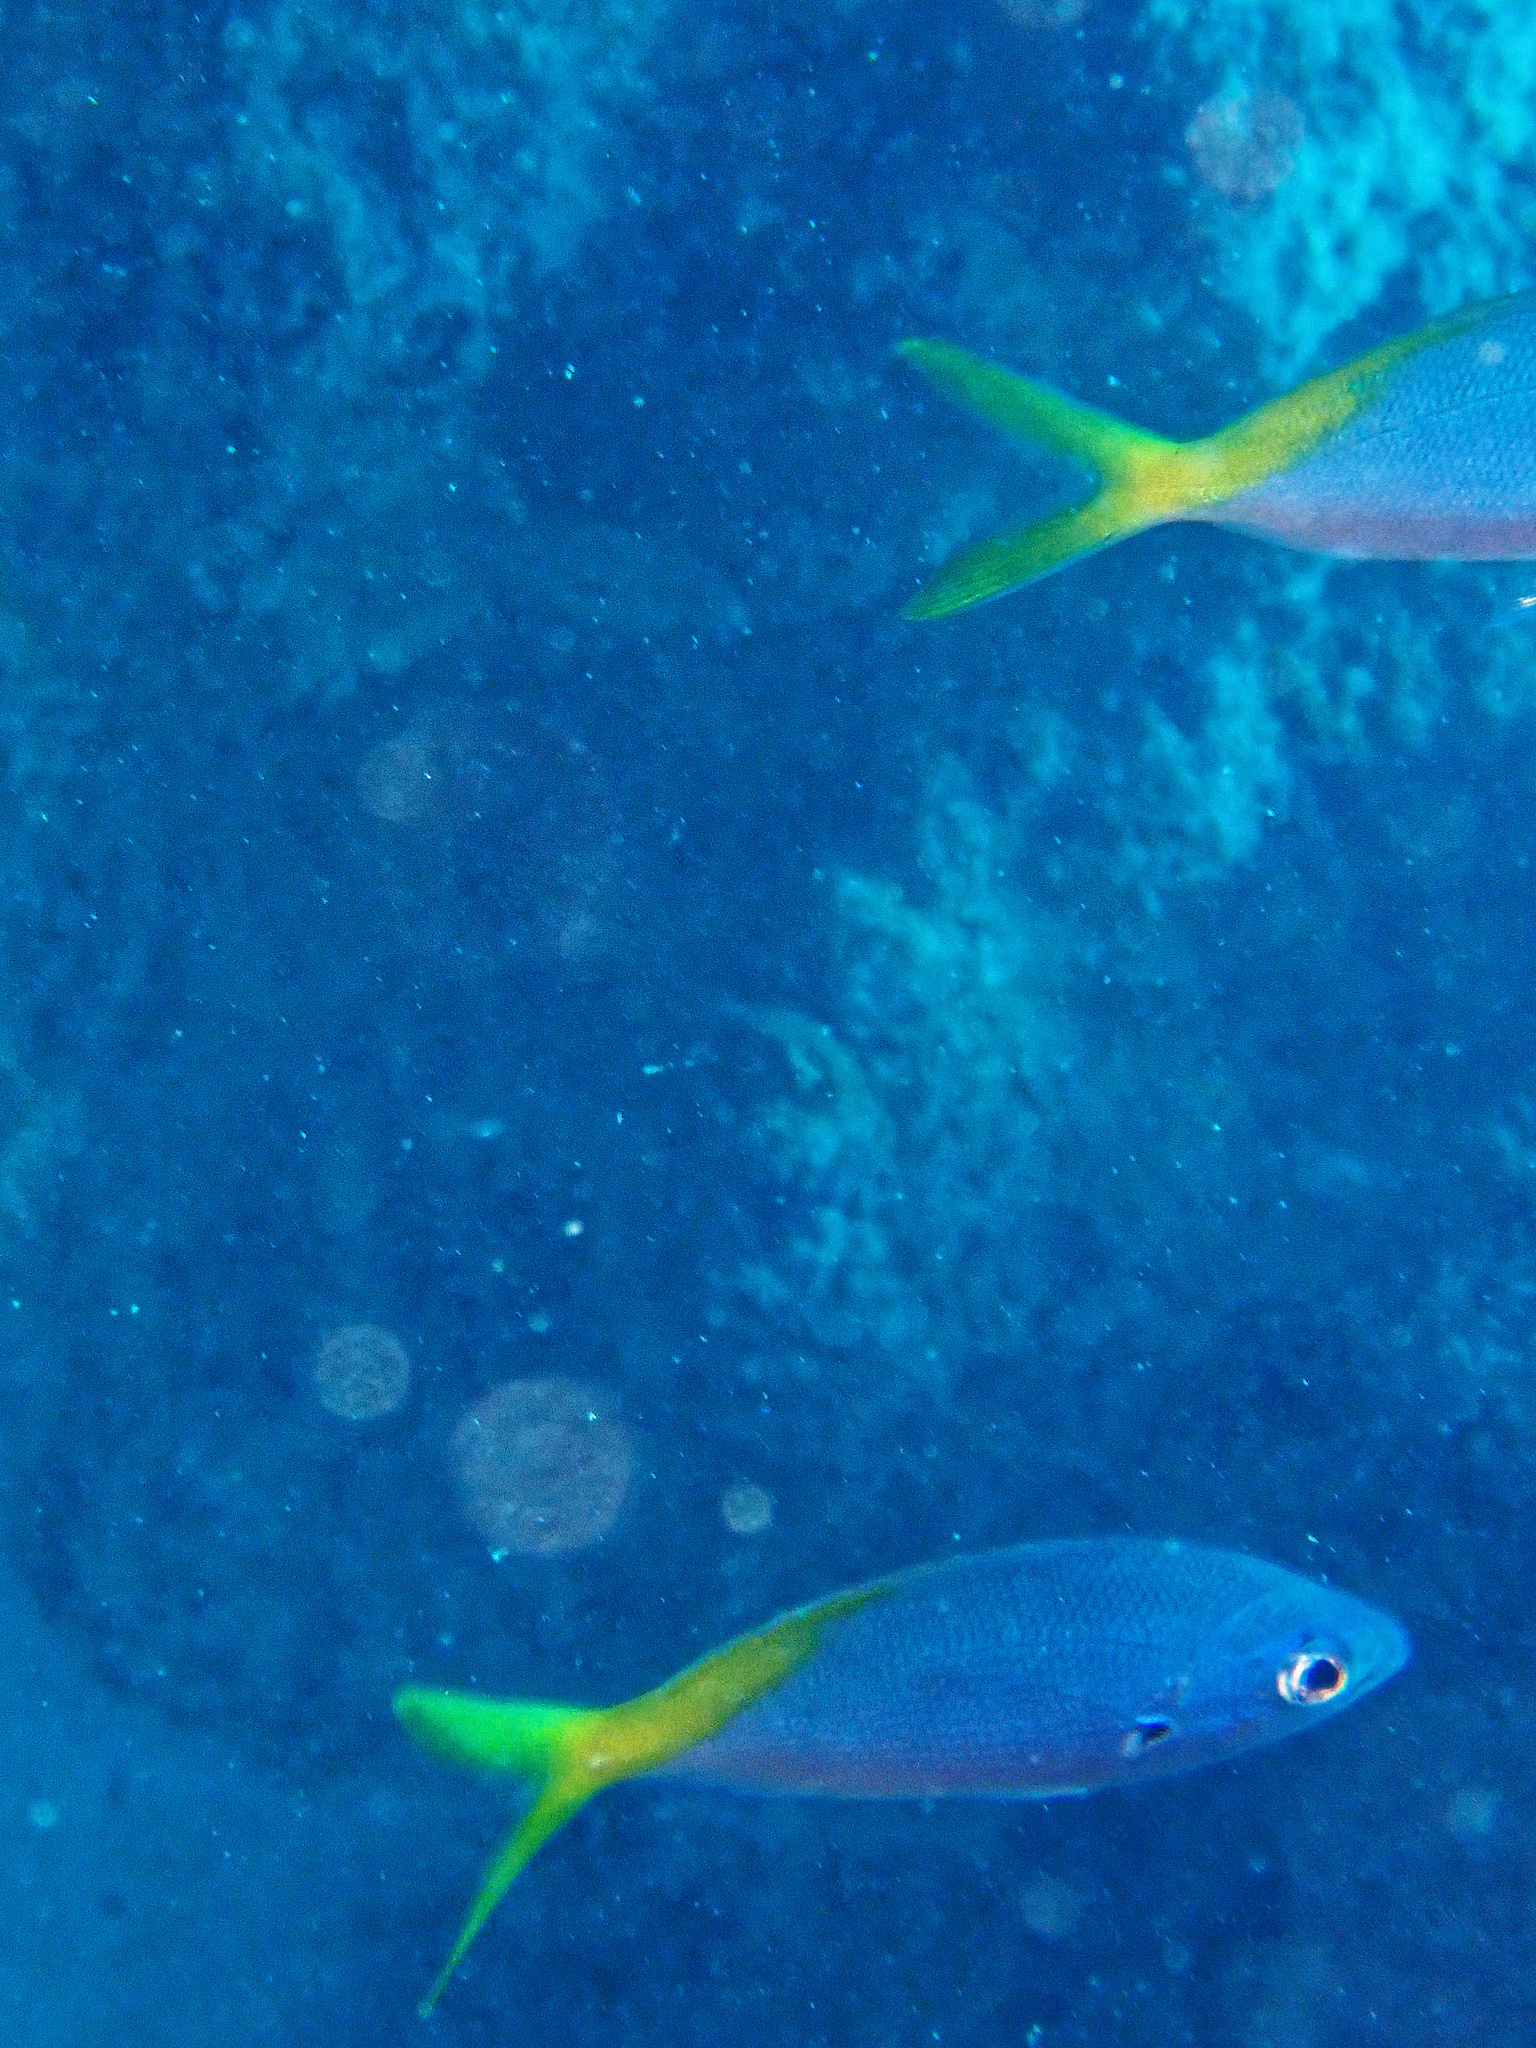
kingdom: Animalia
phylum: Chordata
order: Perciformes
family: Caesionidae
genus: Caesio
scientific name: Caesio teres
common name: Yellow and blueback fusilier
